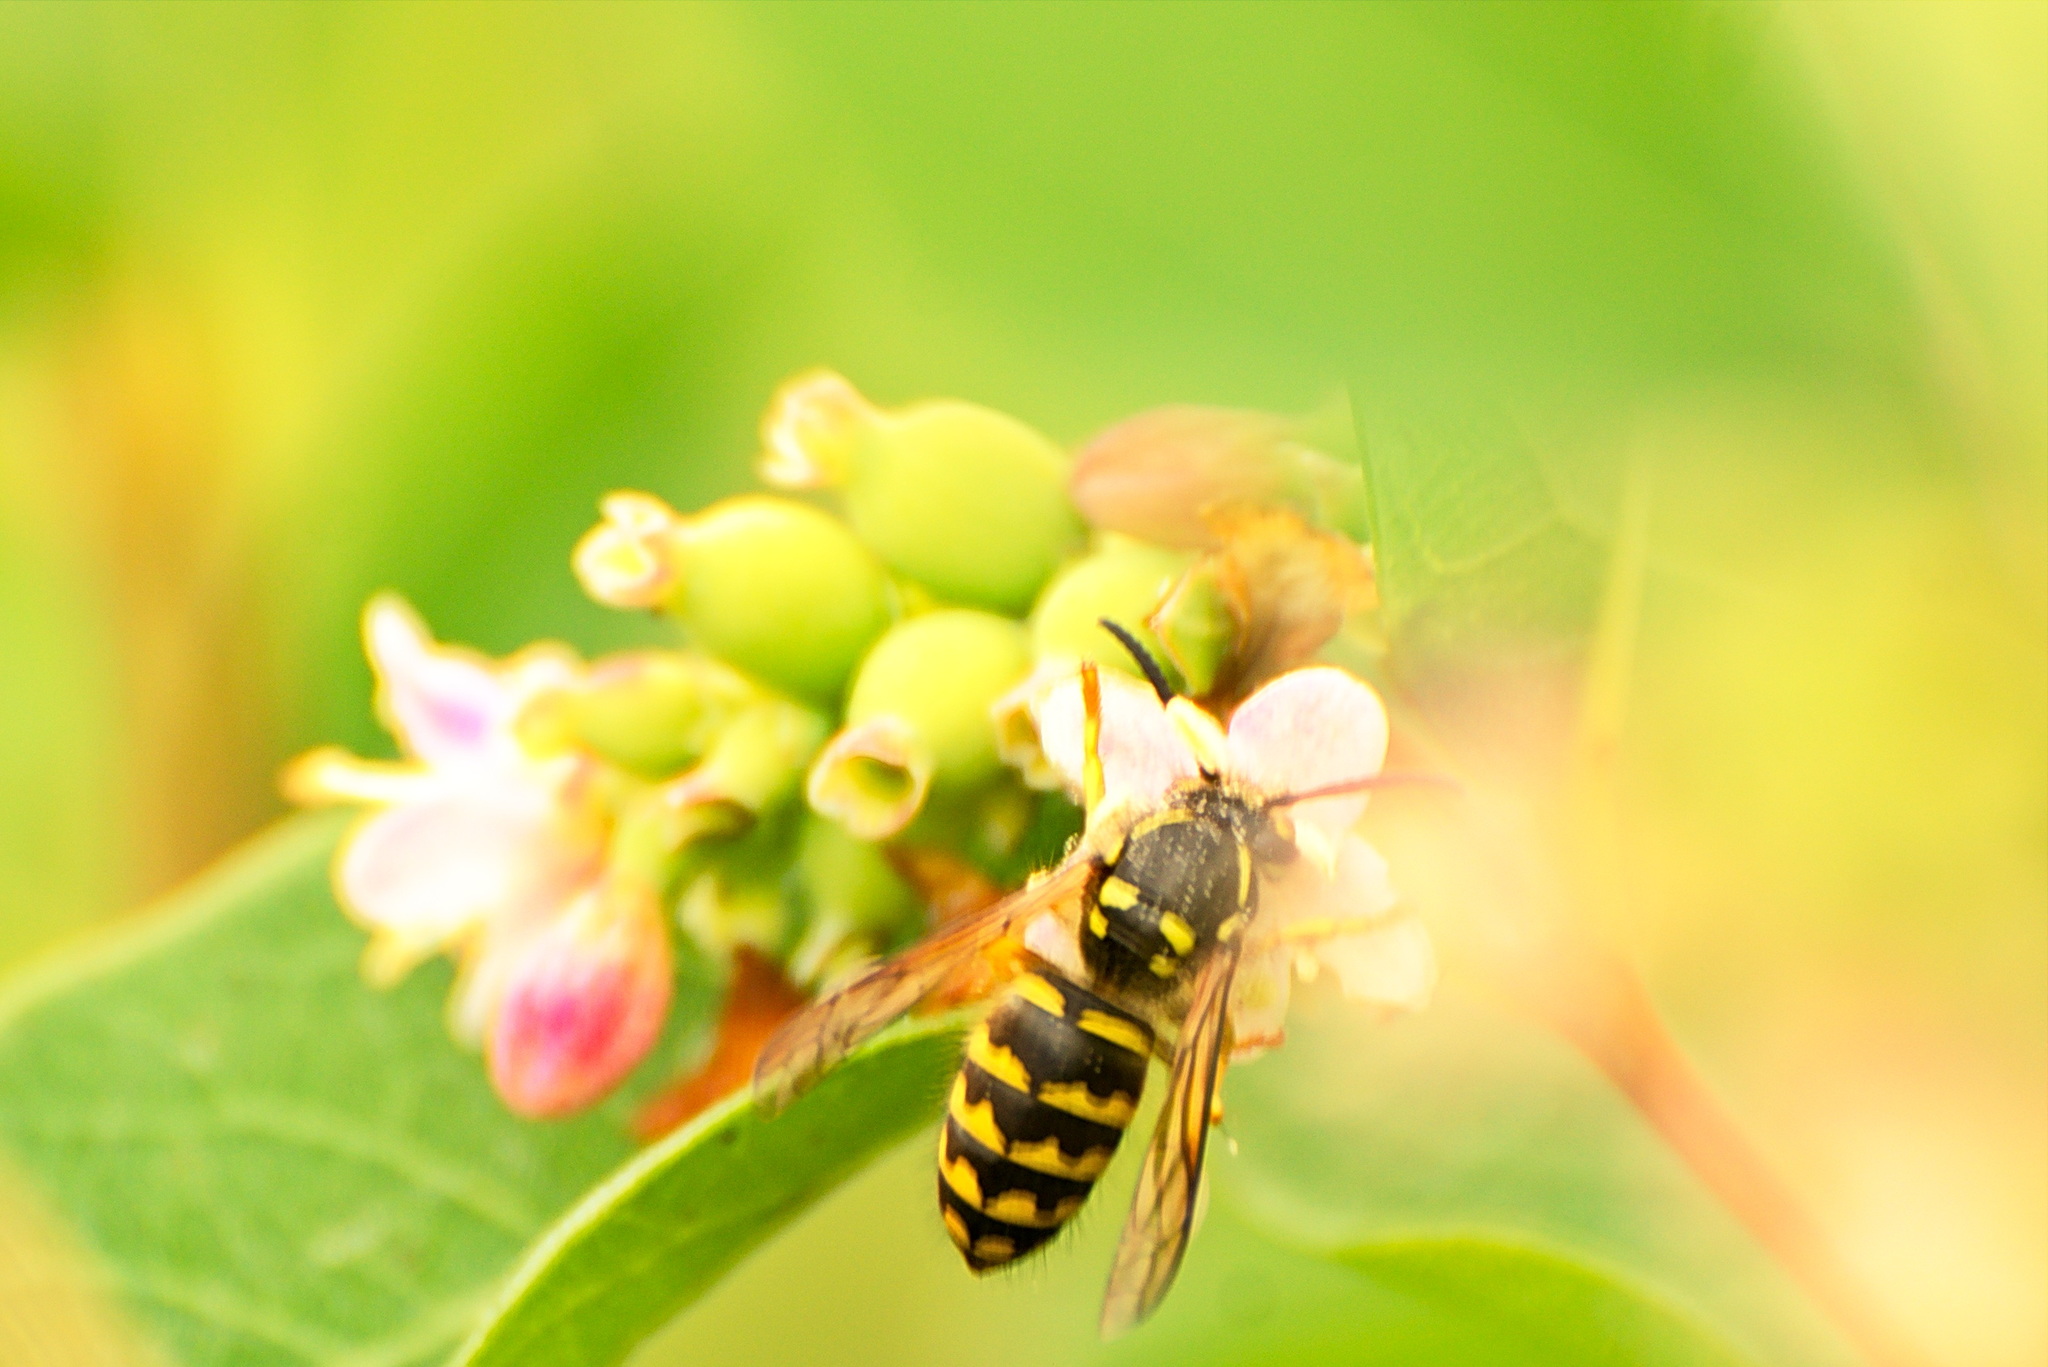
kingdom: Animalia
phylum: Arthropoda
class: Insecta
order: Hymenoptera
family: Vespidae
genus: Dolichovespula
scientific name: Dolichovespula arenaria
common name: Aerial yellowjacket
